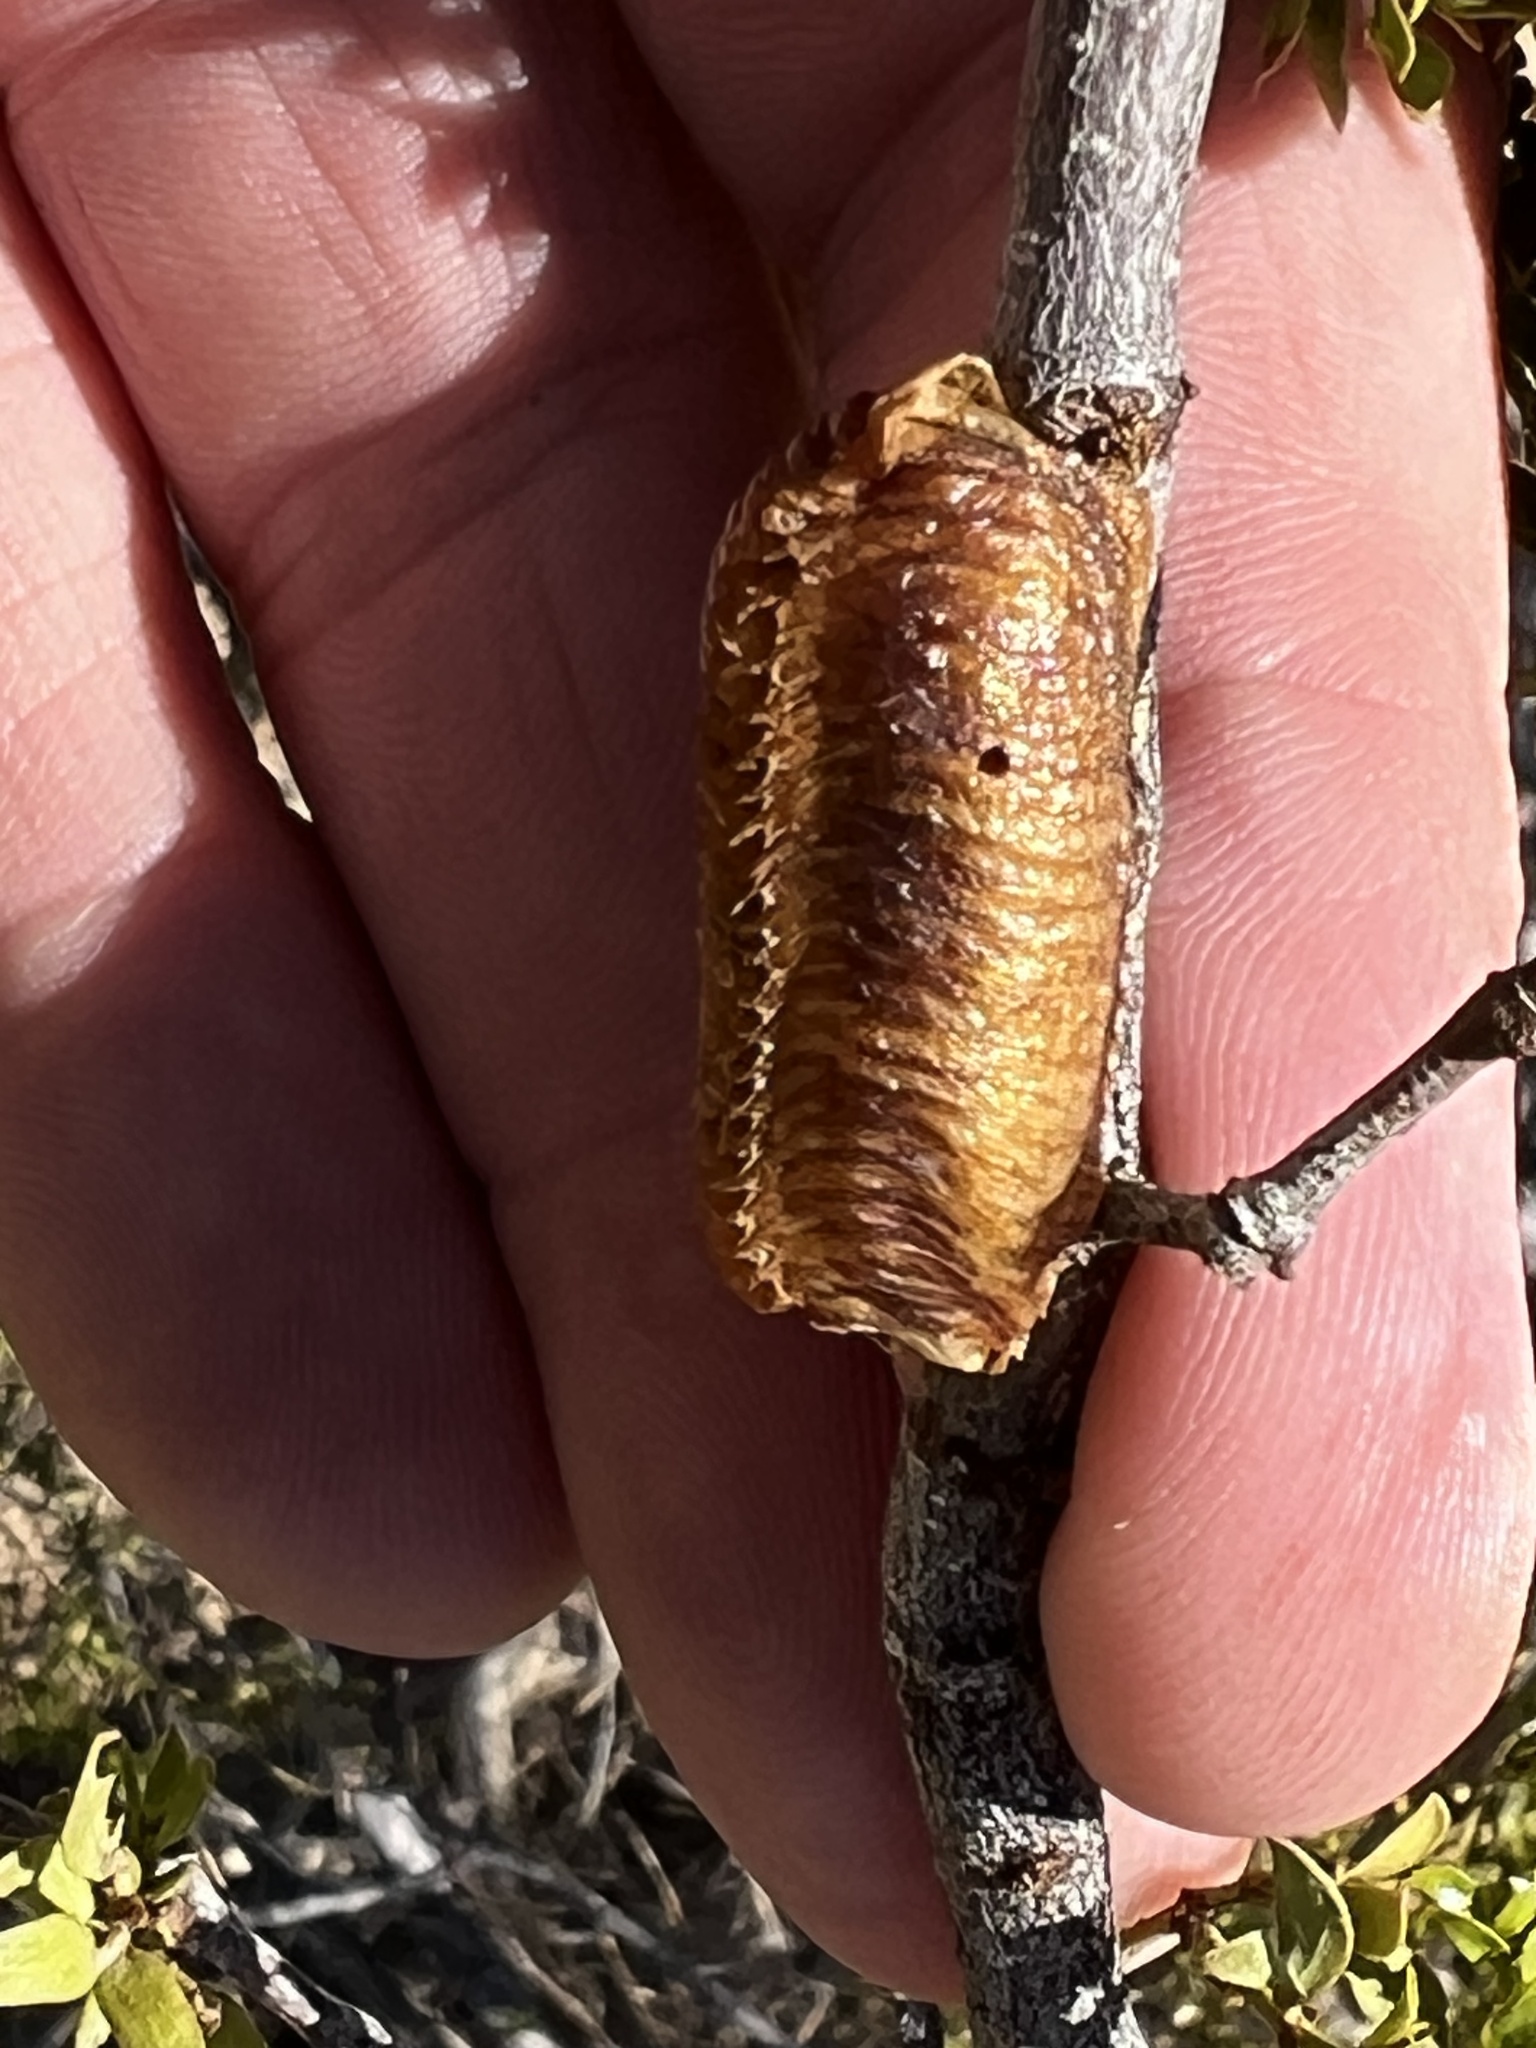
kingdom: Animalia
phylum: Arthropoda
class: Insecta
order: Mantodea
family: Mantidae
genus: Stagmomantis
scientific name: Stagmomantis limbata
